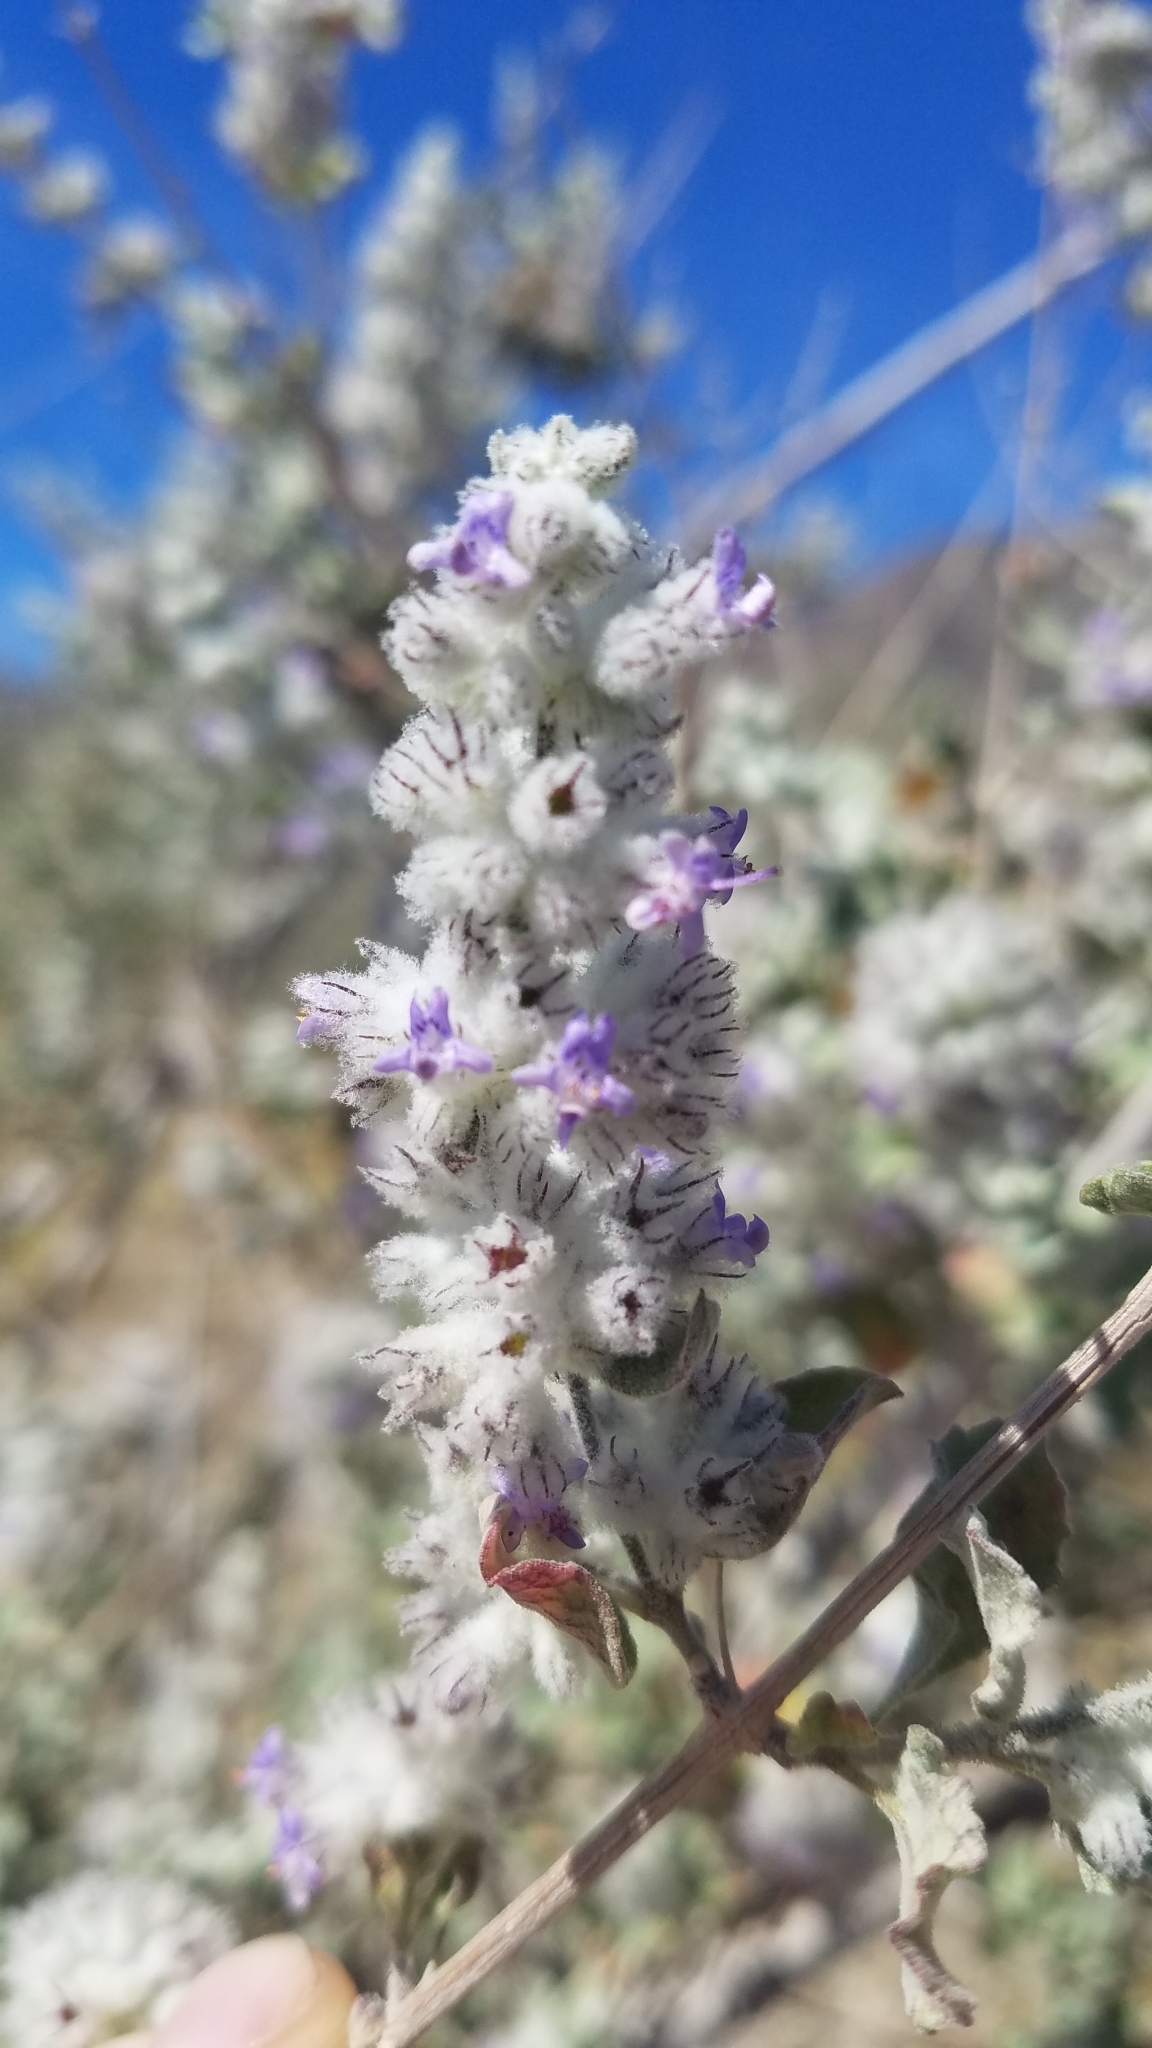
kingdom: Plantae
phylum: Tracheophyta
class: Magnoliopsida
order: Lamiales
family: Lamiaceae
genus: Condea
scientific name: Condea emoryi
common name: Chia
